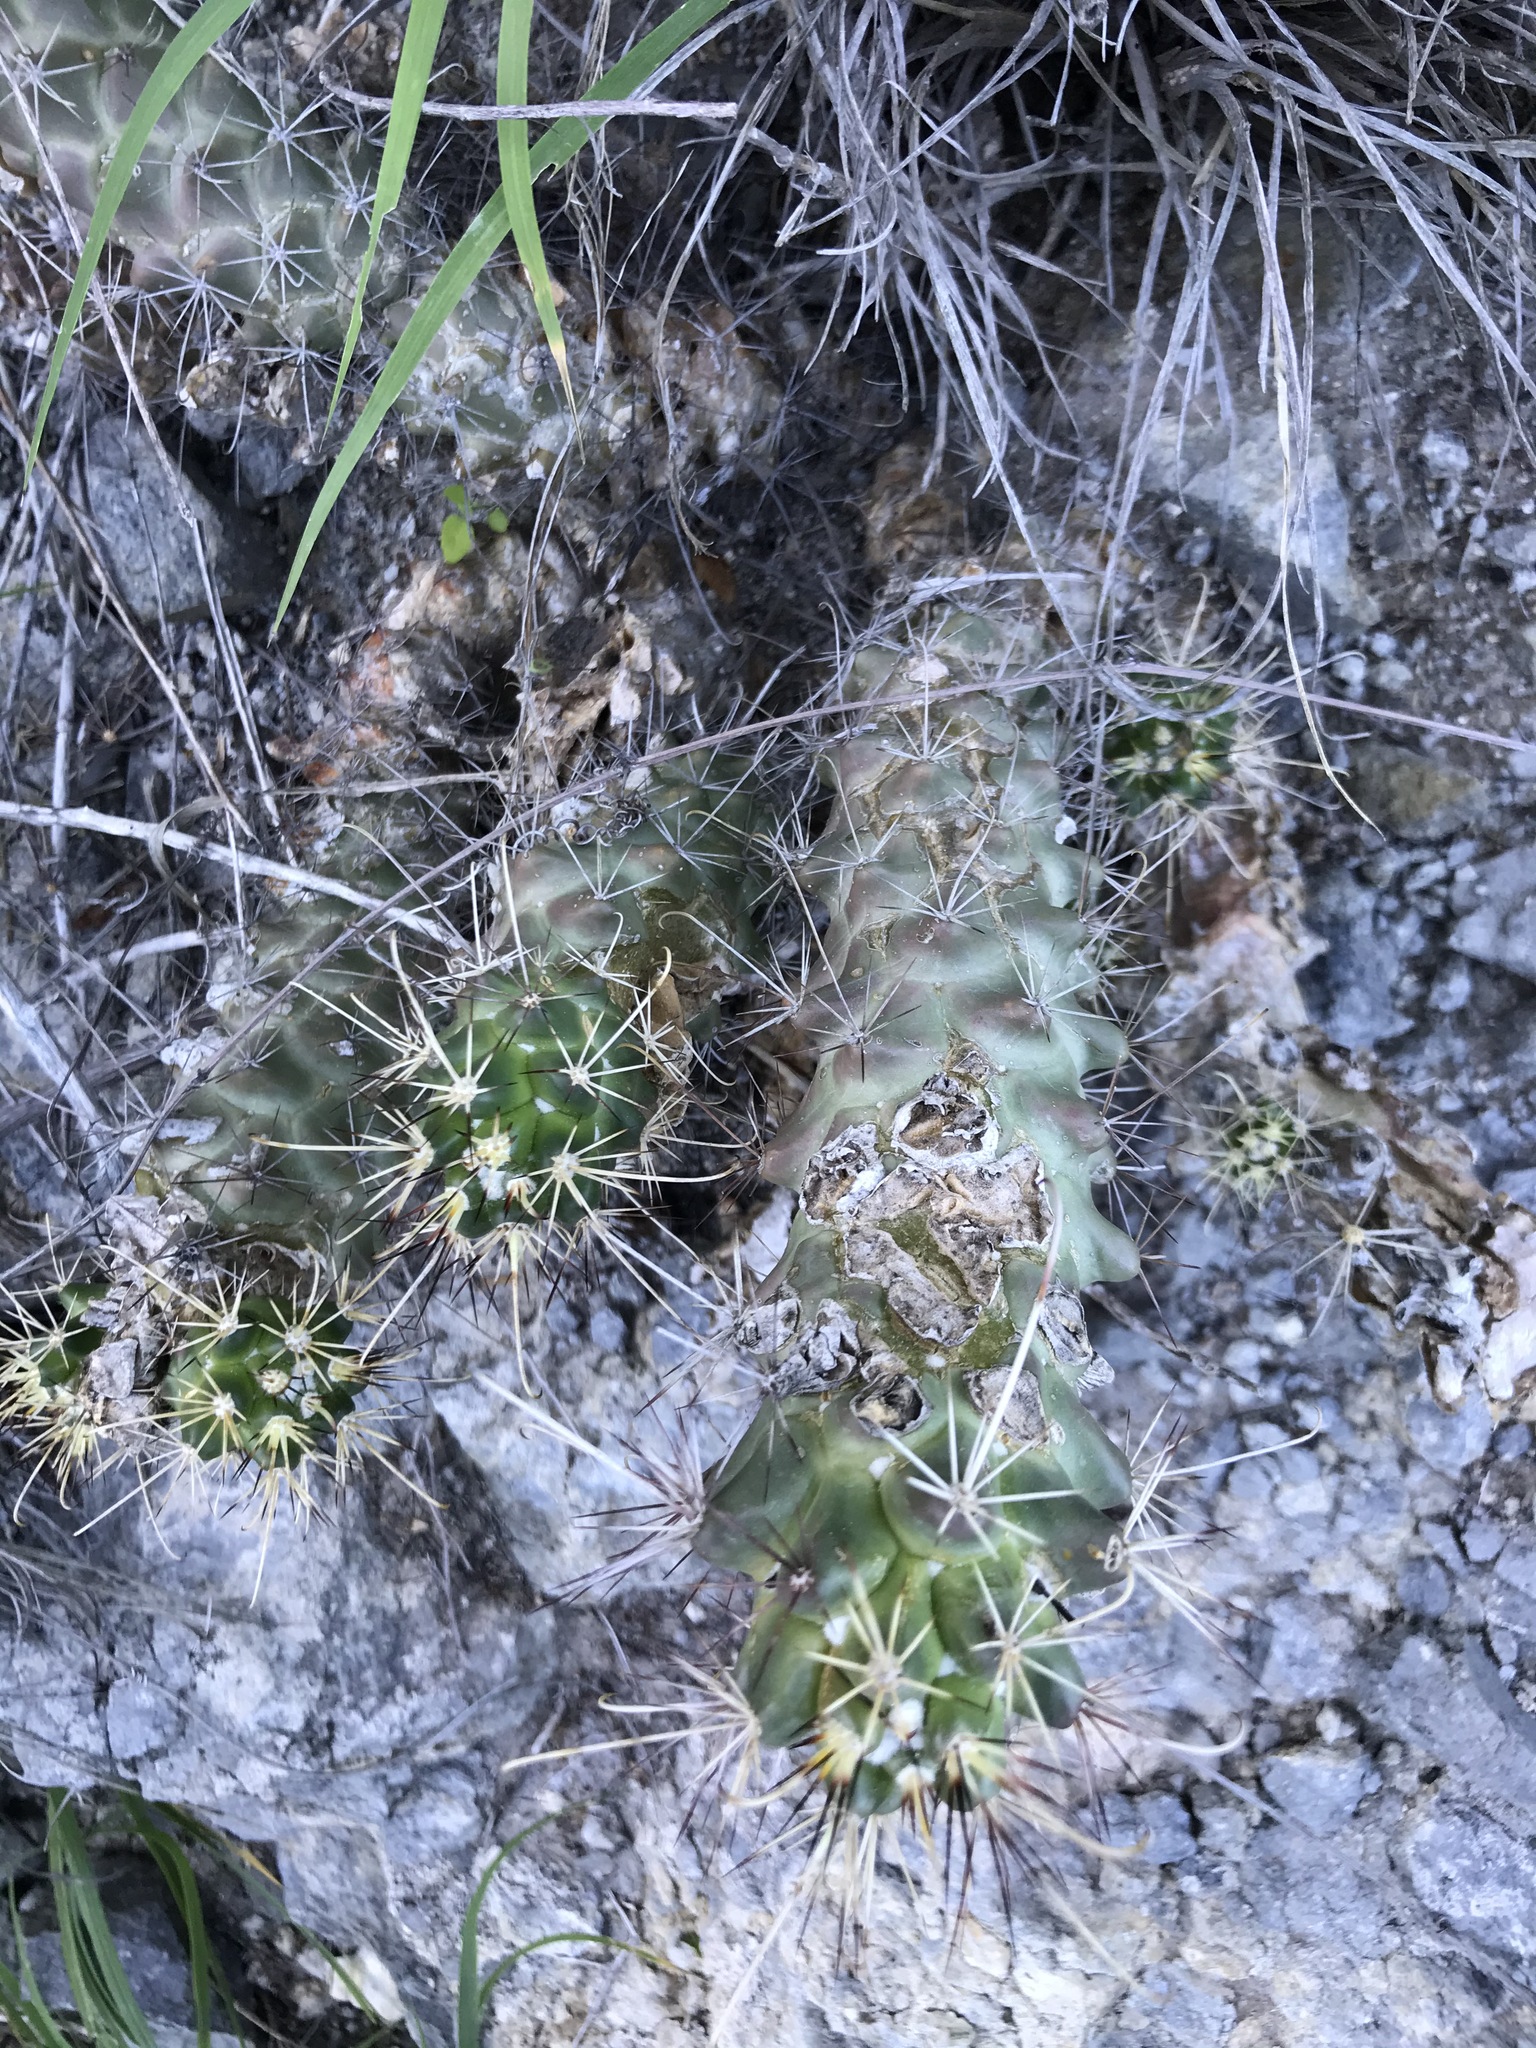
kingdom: Plantae
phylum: Tracheophyta
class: Magnoliopsida
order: Caryophyllales
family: Cactaceae
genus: Cochemiea
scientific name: Cochemiea poselgeri
